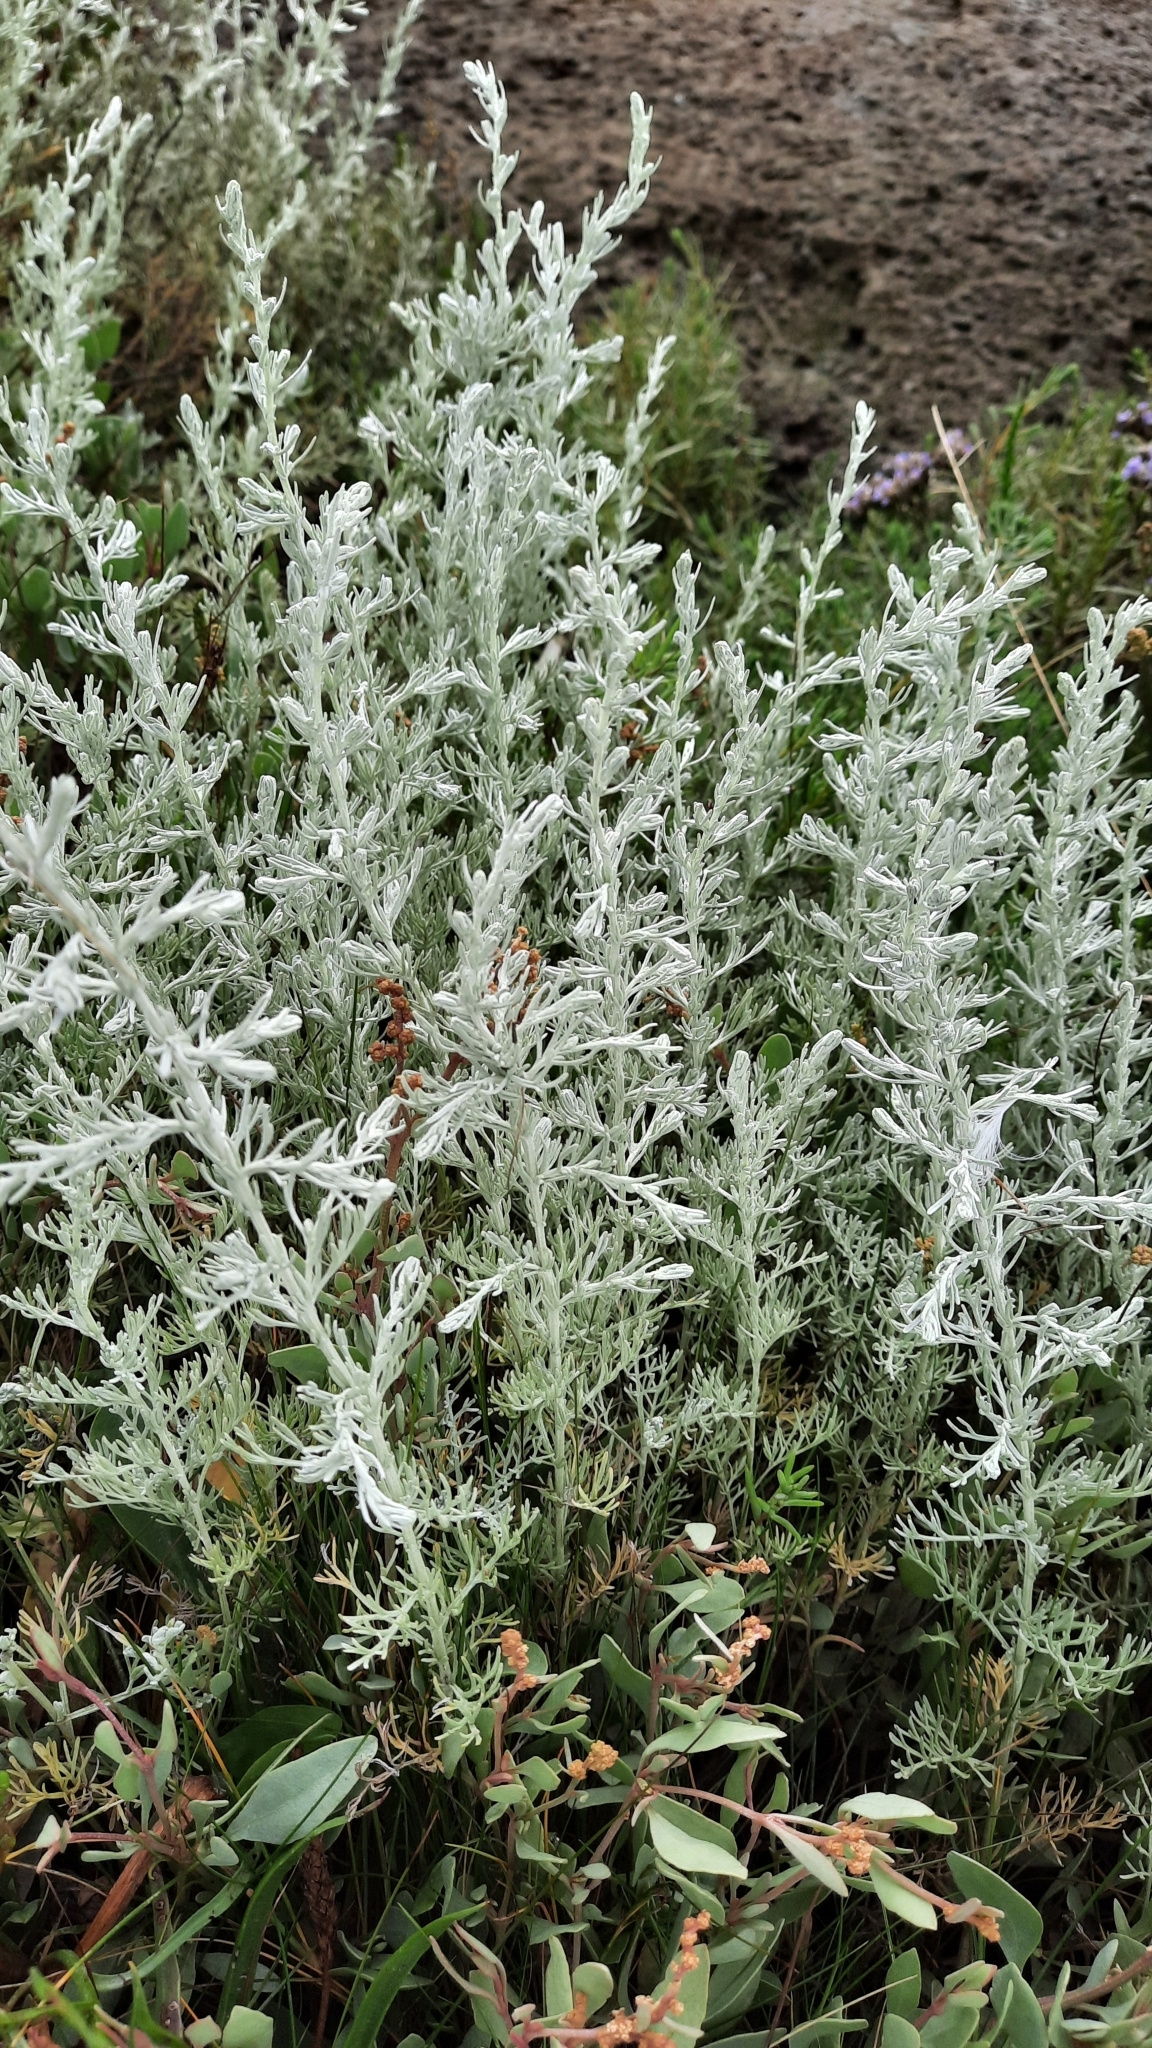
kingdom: Plantae
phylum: Tracheophyta
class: Magnoliopsida
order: Asterales
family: Asteraceae
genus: Artemisia
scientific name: Artemisia maritima
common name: Wormseed
